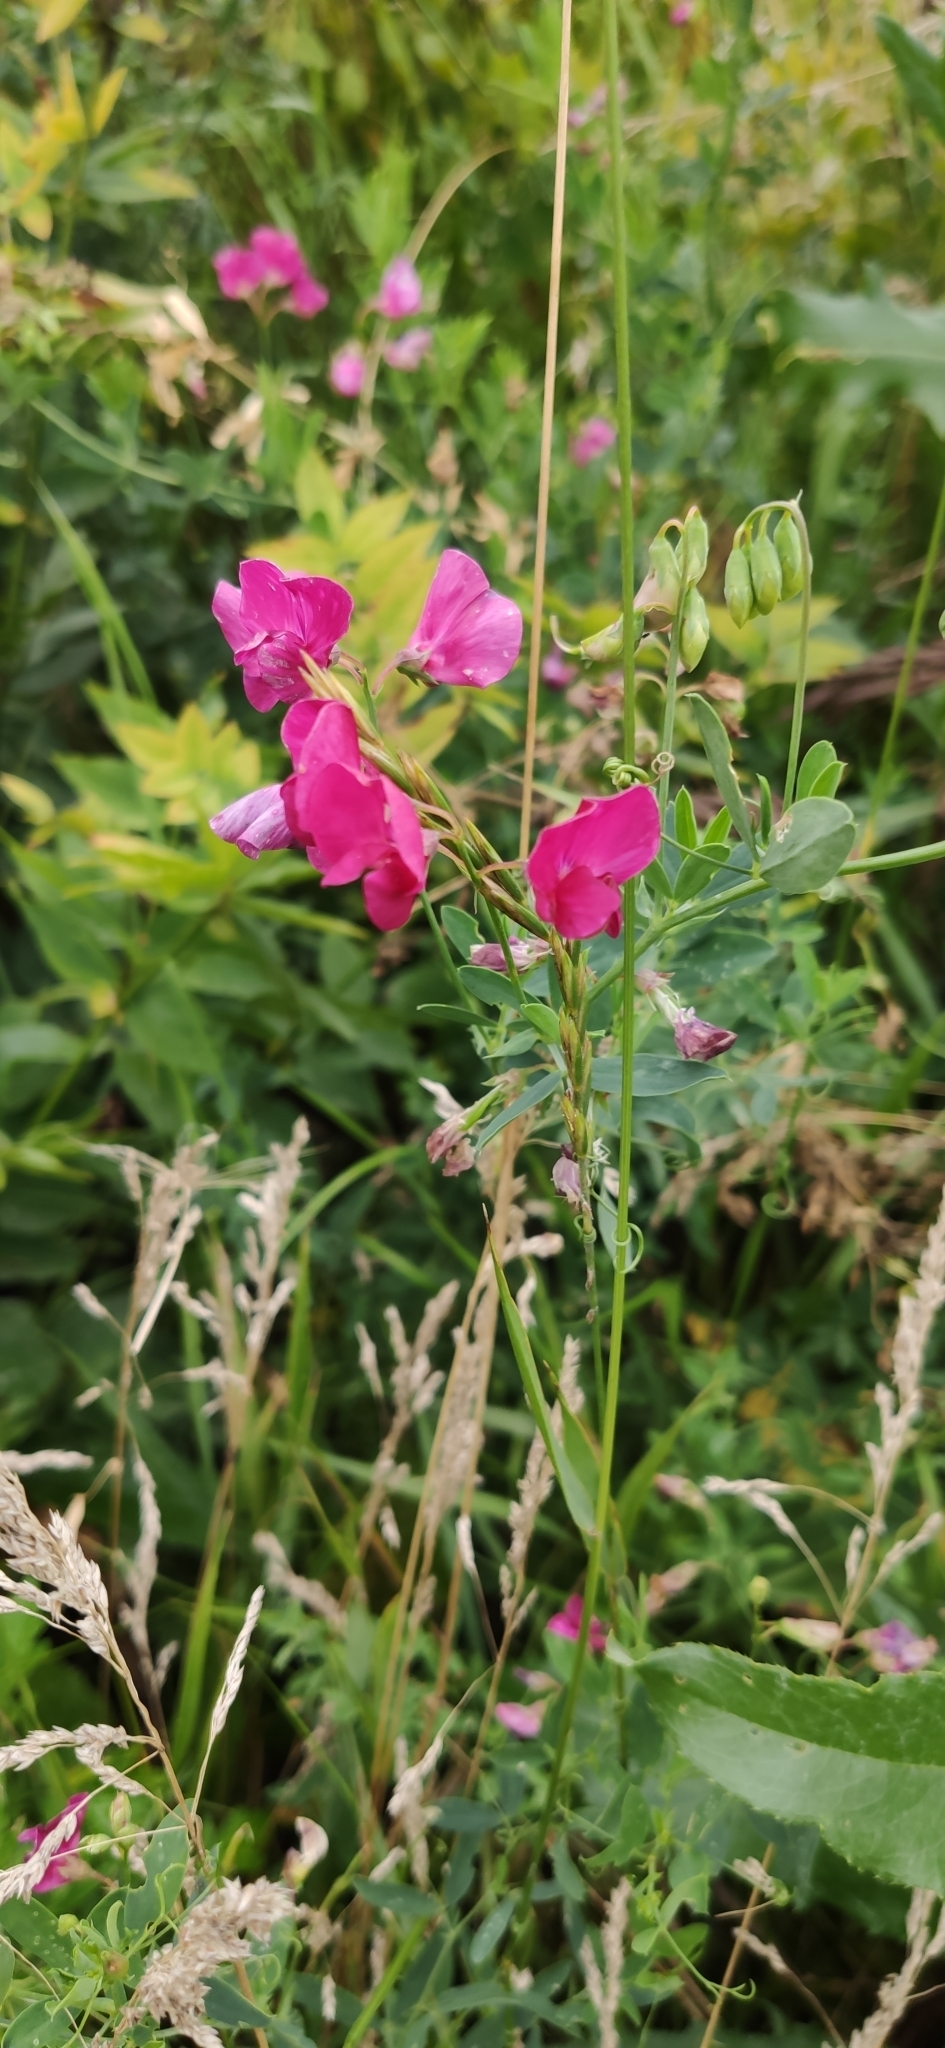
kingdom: Plantae
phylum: Tracheophyta
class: Magnoliopsida
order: Fabales
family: Fabaceae
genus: Lathyrus
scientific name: Lathyrus tuberosus
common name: Tuberous pea
